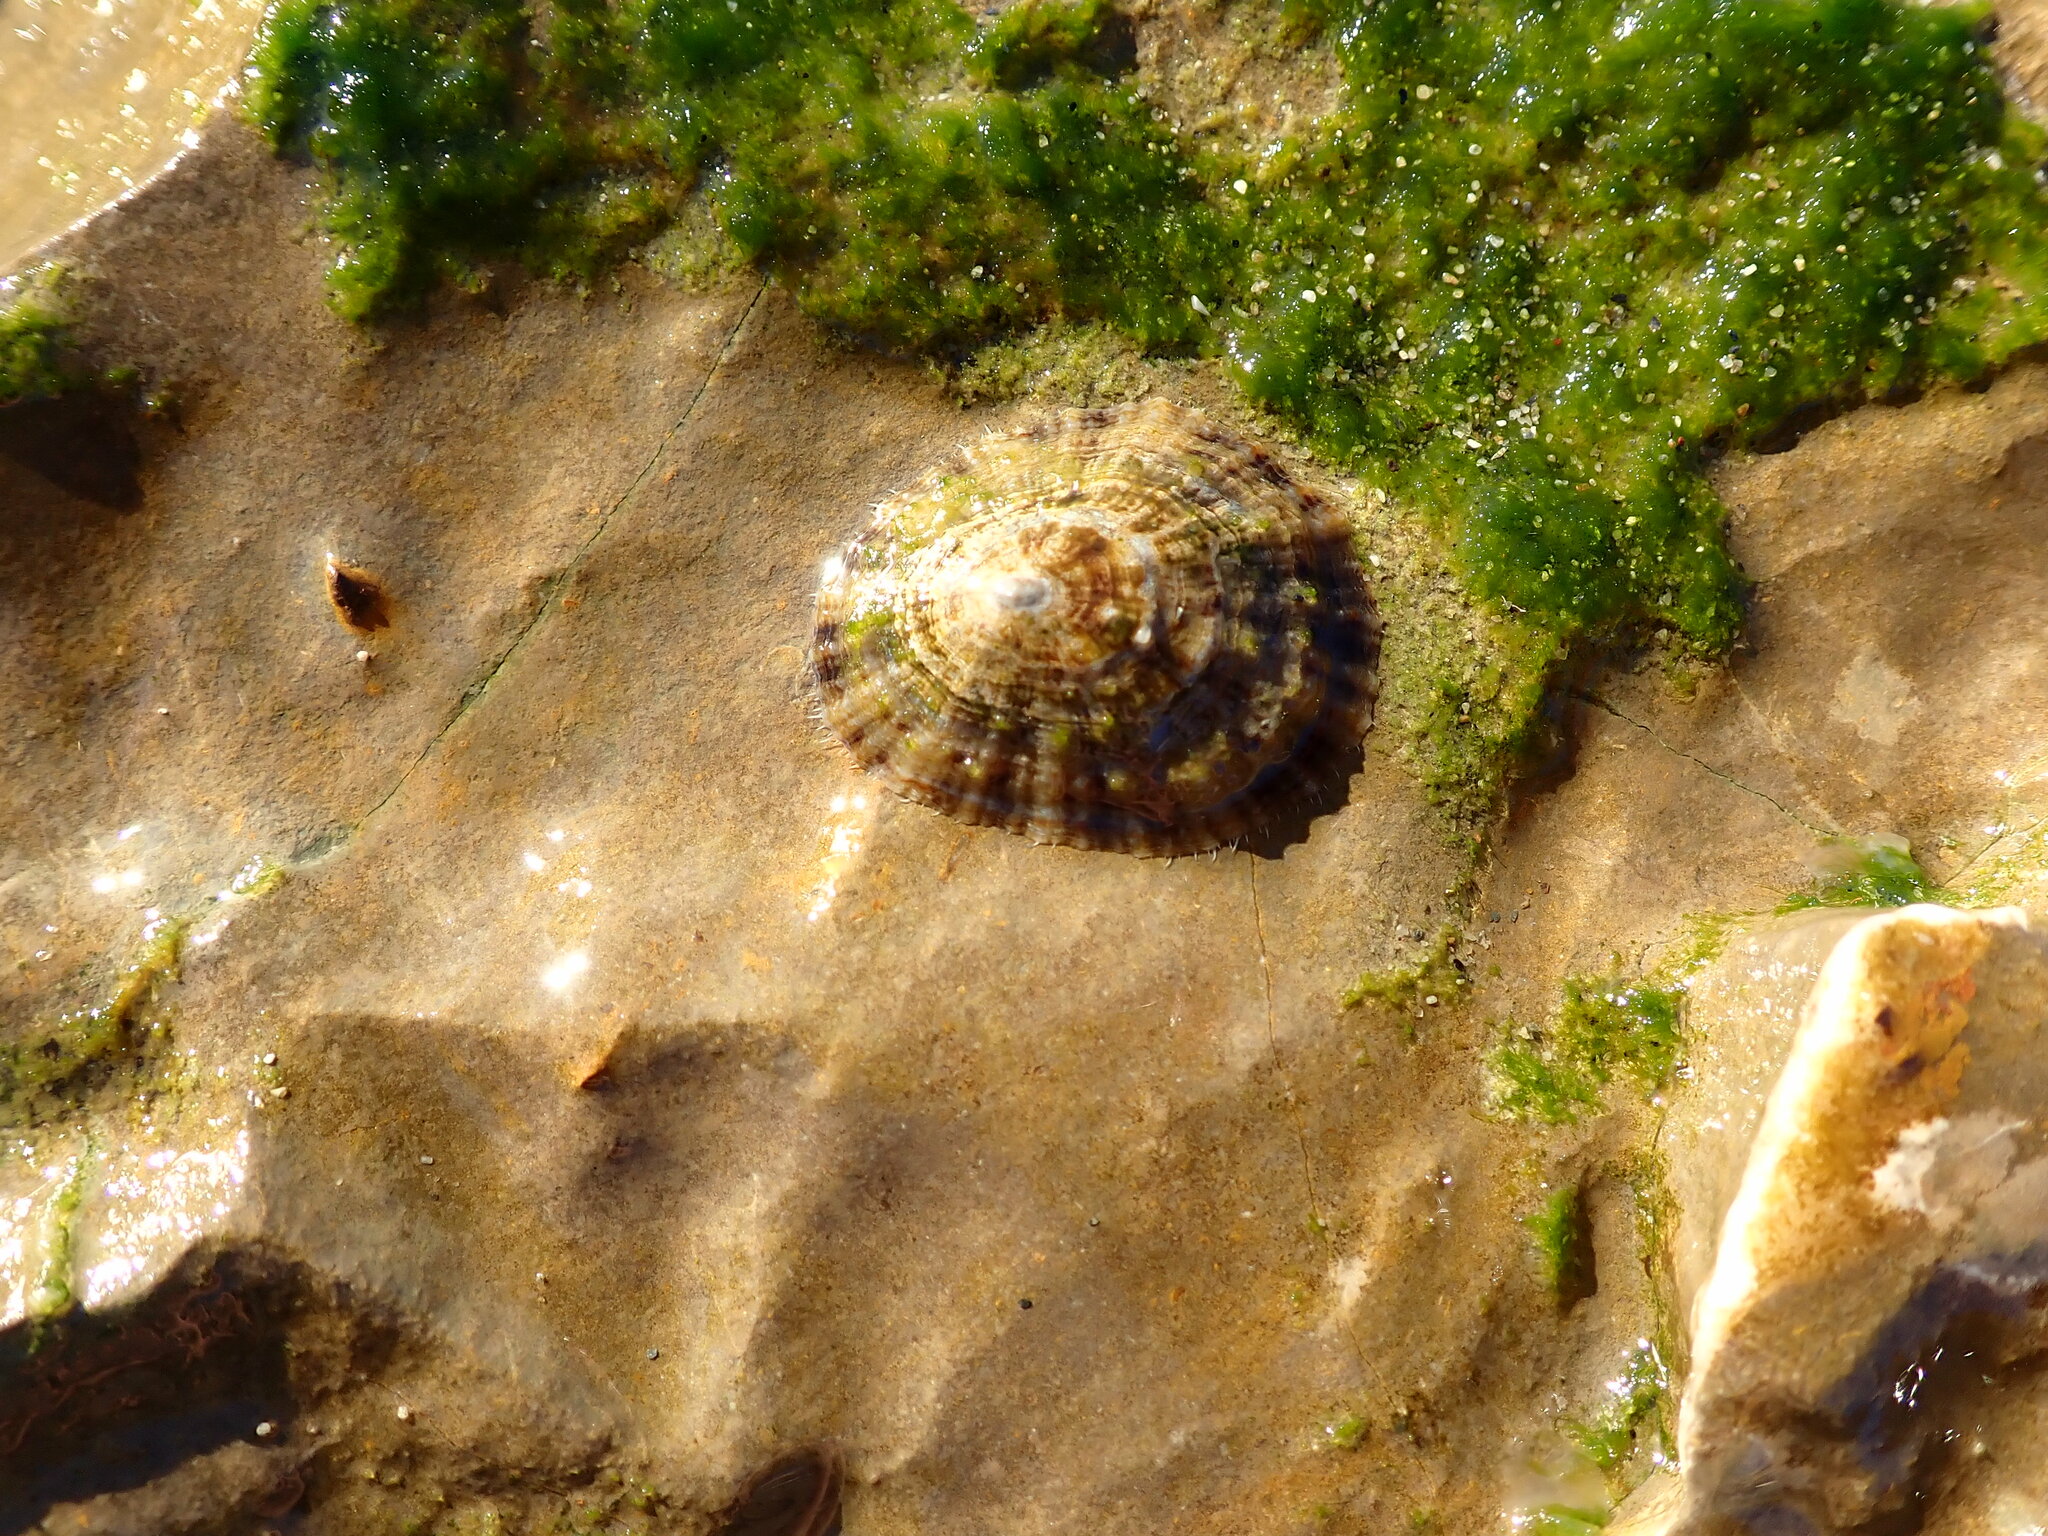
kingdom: Animalia
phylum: Mollusca
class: Gastropoda
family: Patellidae
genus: Patella
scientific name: Patella caerulea
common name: Mediterranean limpet
